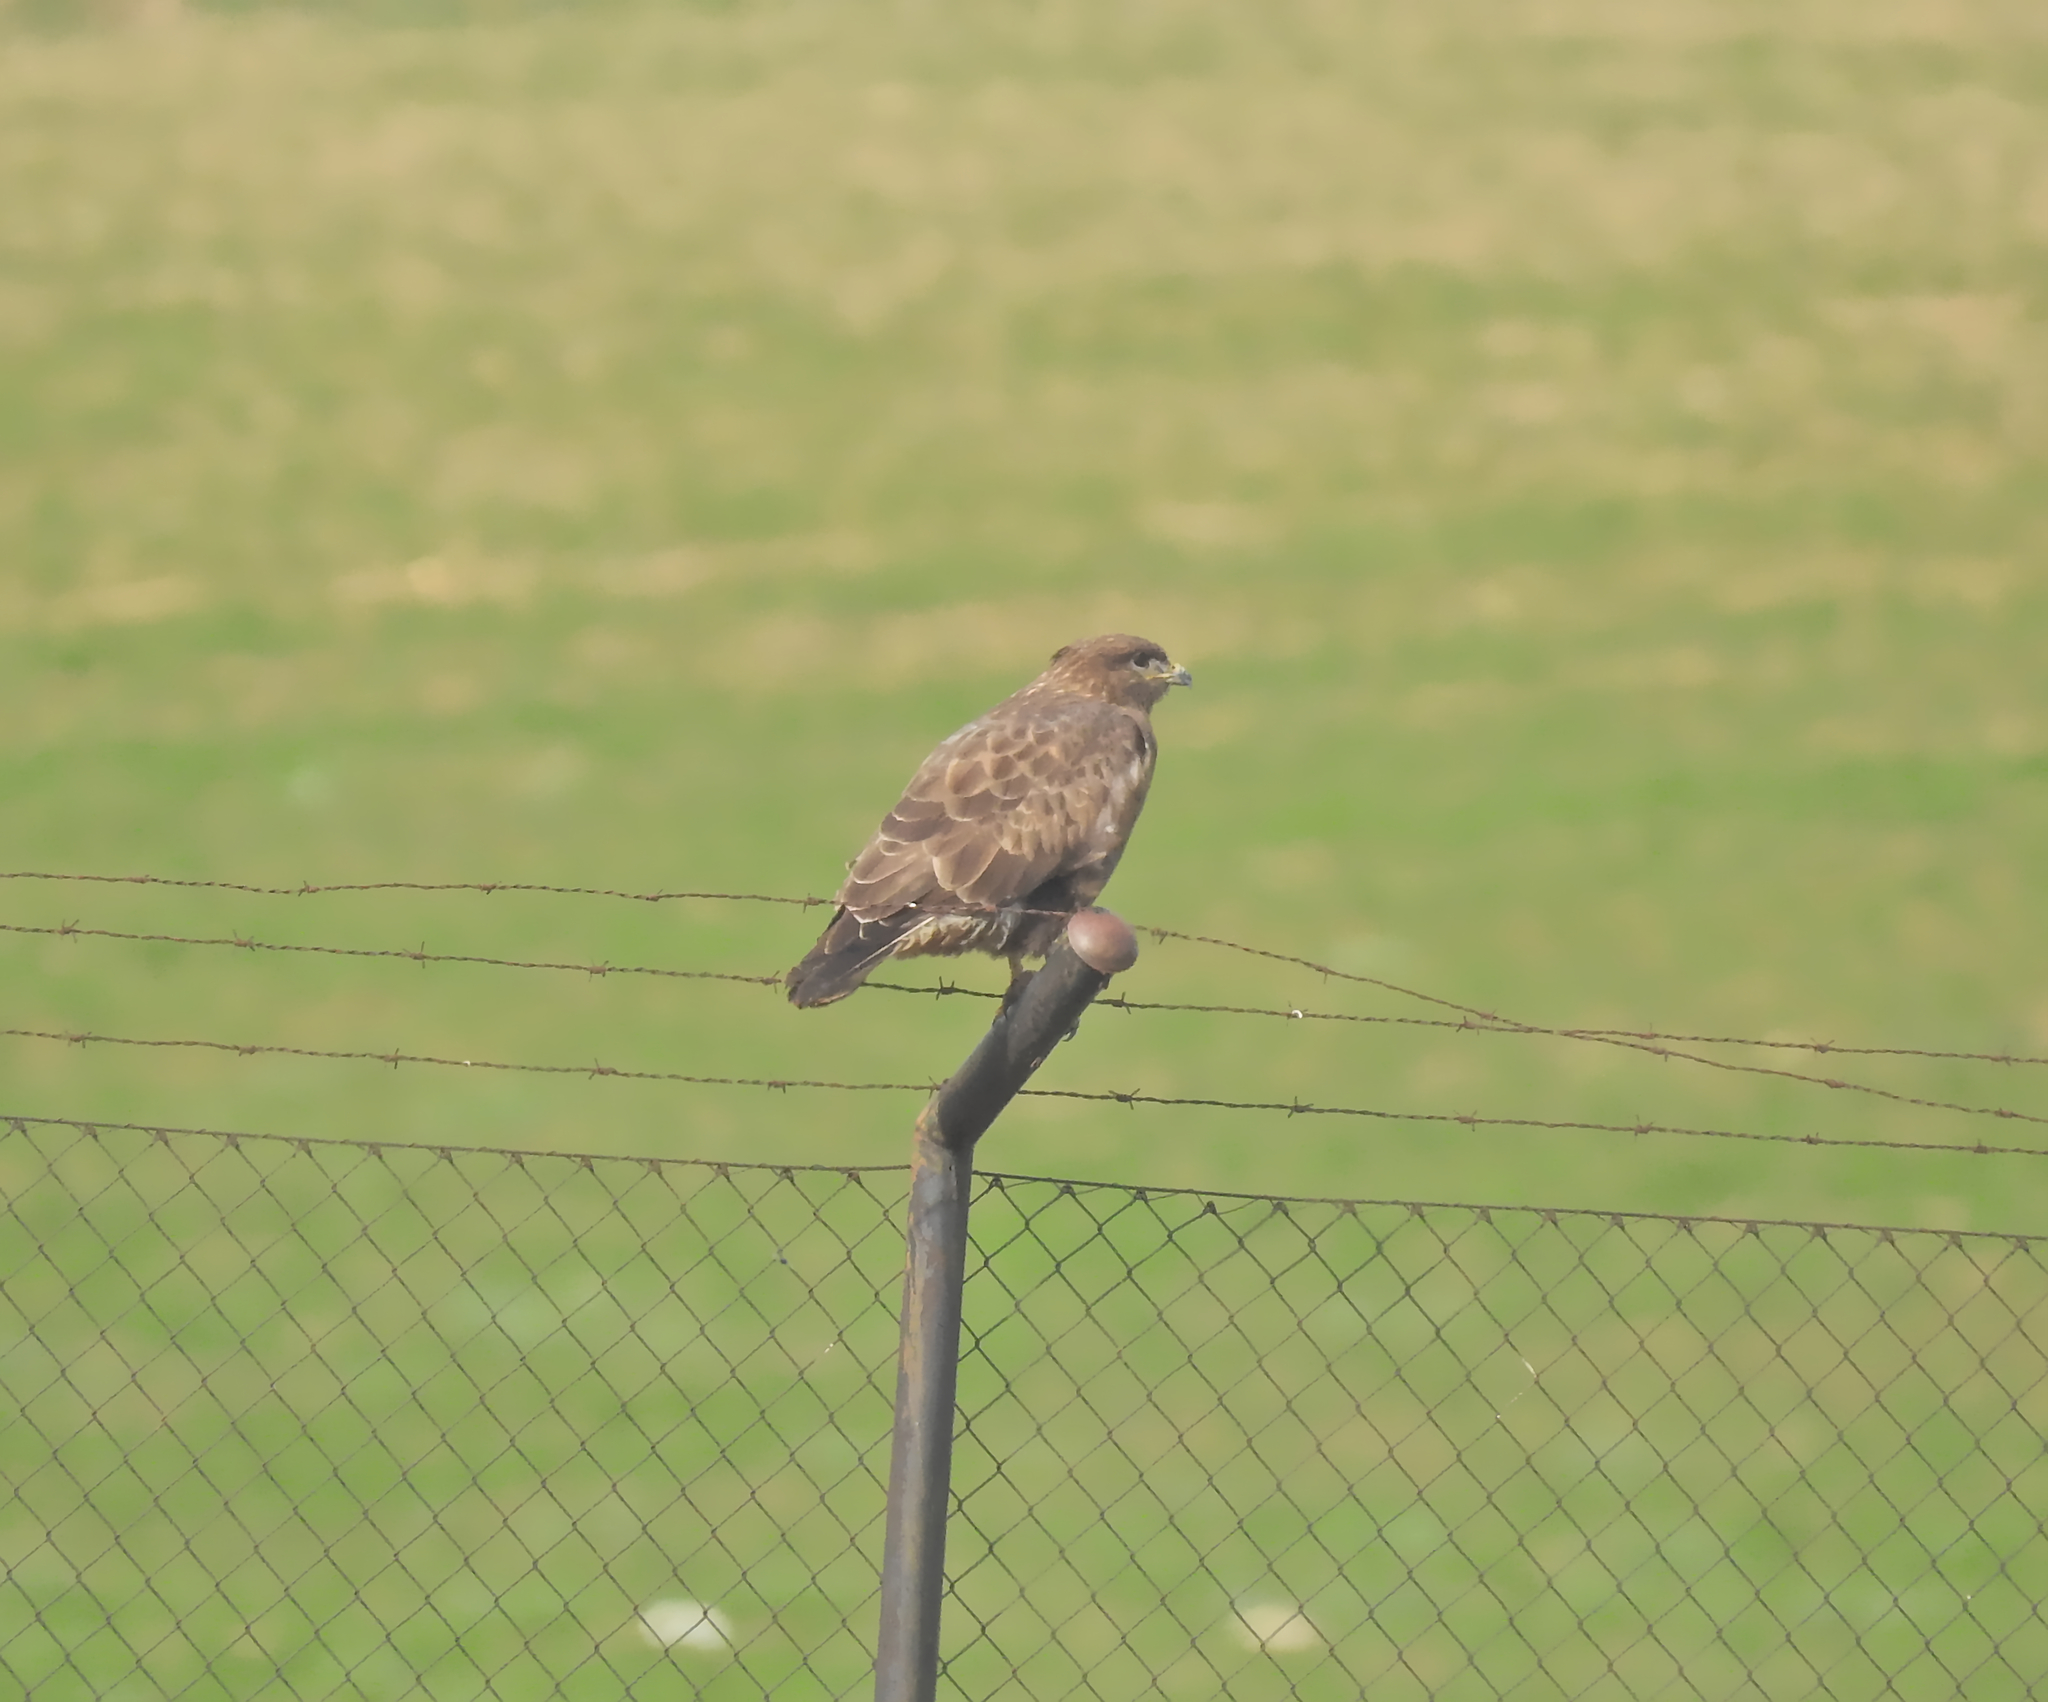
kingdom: Animalia
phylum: Chordata
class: Aves
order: Accipitriformes
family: Accipitridae
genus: Buteo
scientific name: Buteo buteo
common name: Common buzzard
